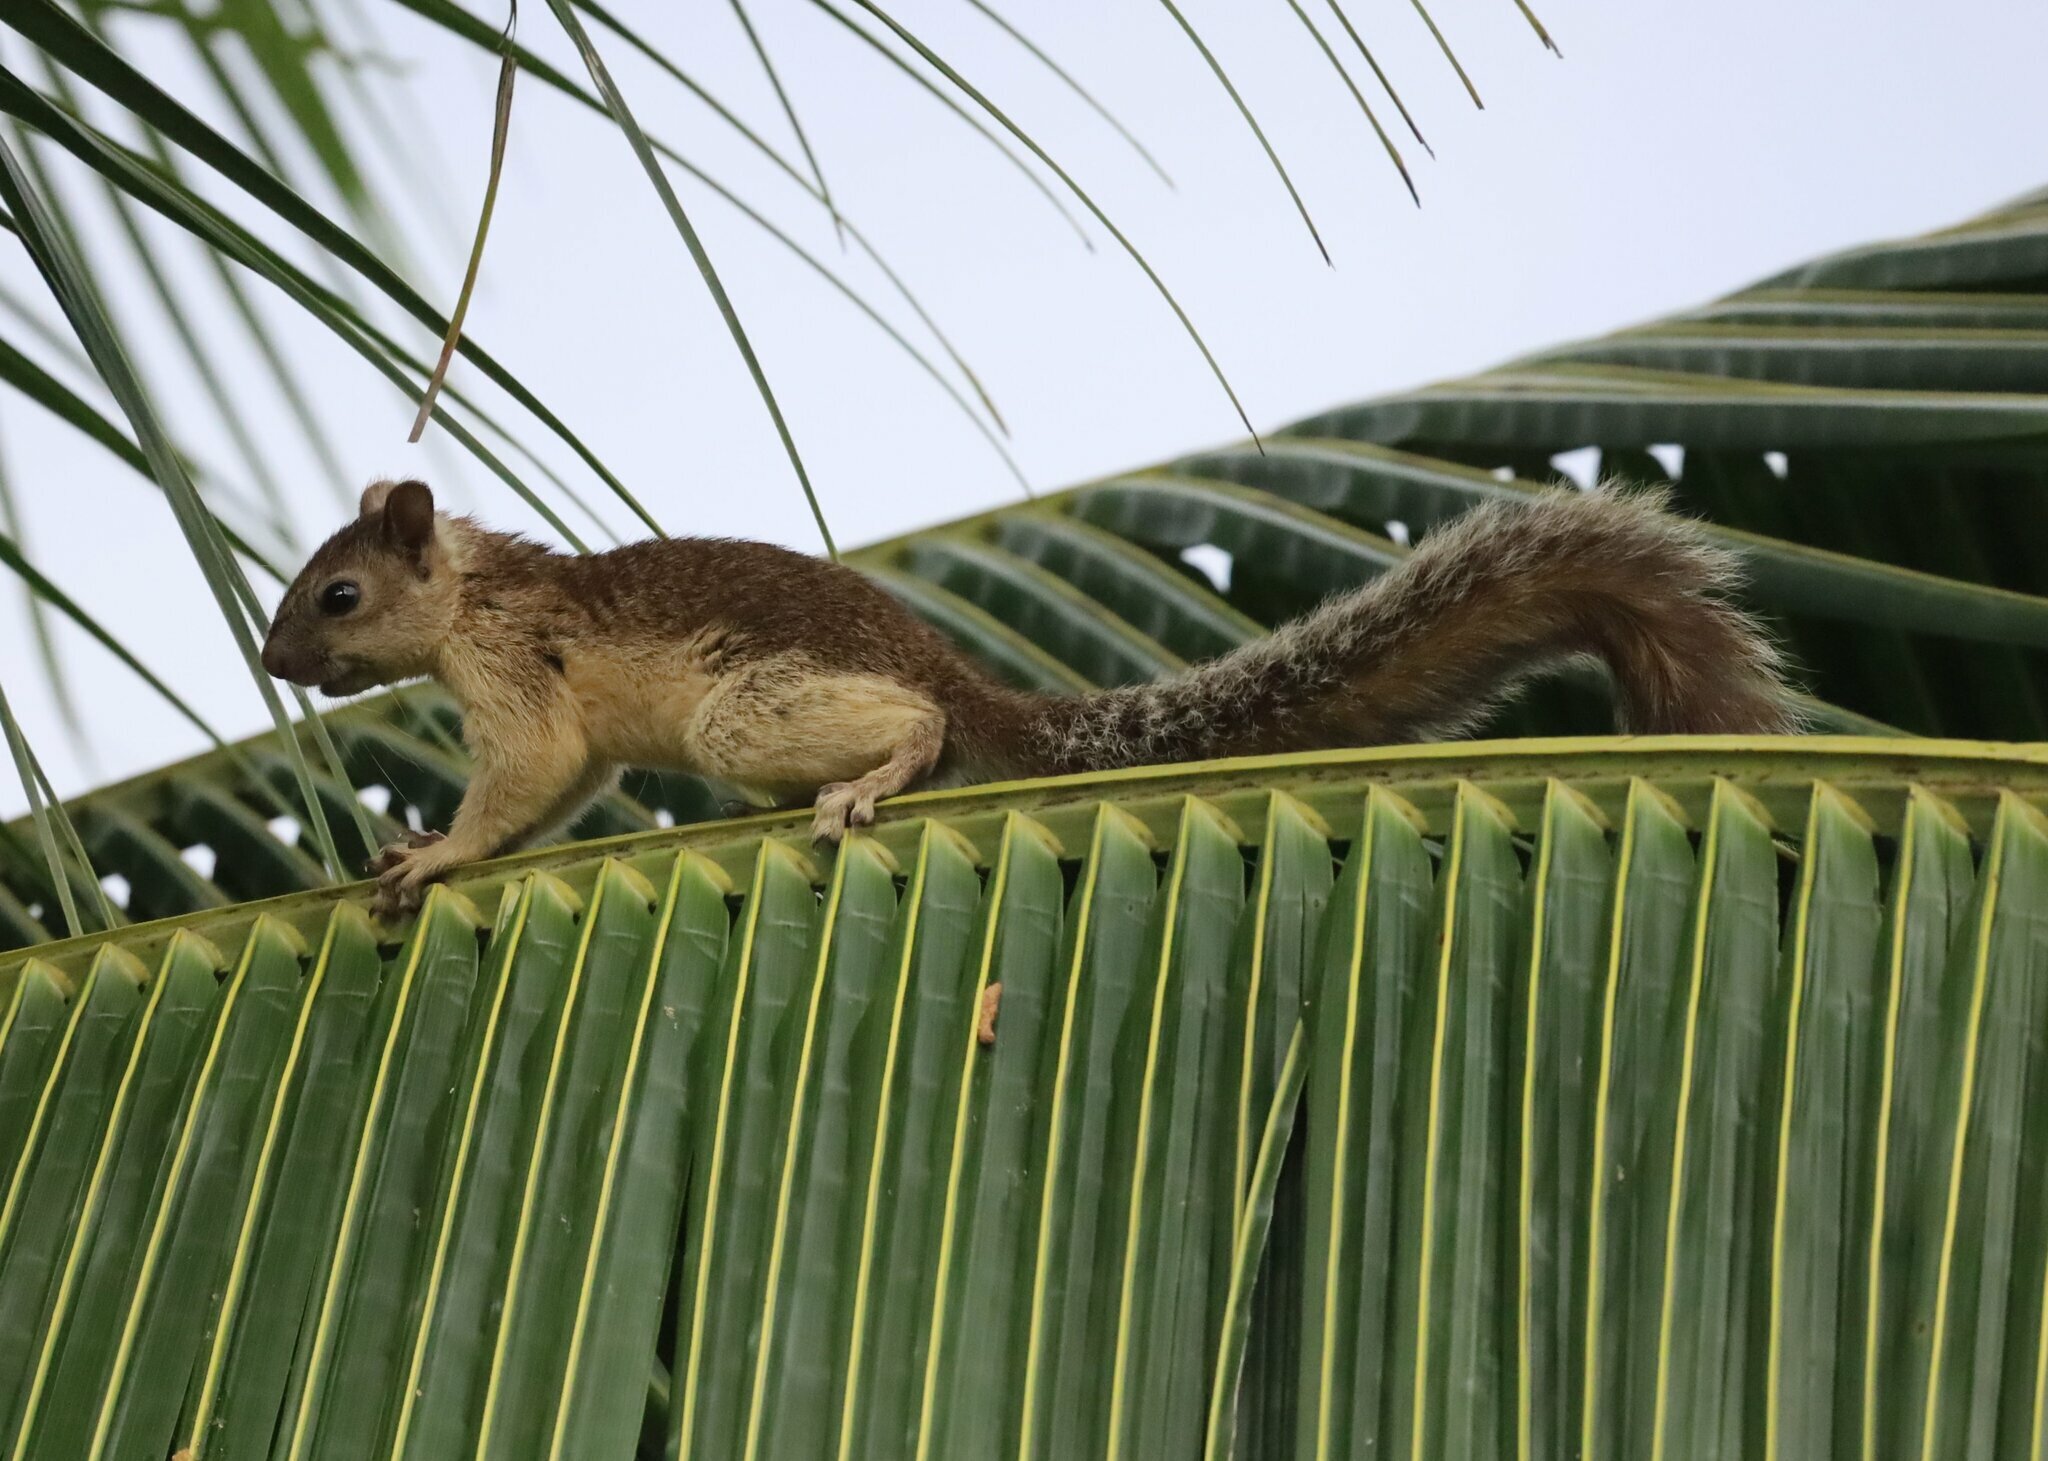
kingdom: Animalia
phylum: Chordata
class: Mammalia
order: Rodentia
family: Sciuridae
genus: Sciurus
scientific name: Sciurus variegatoides
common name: Variegated squirrel
